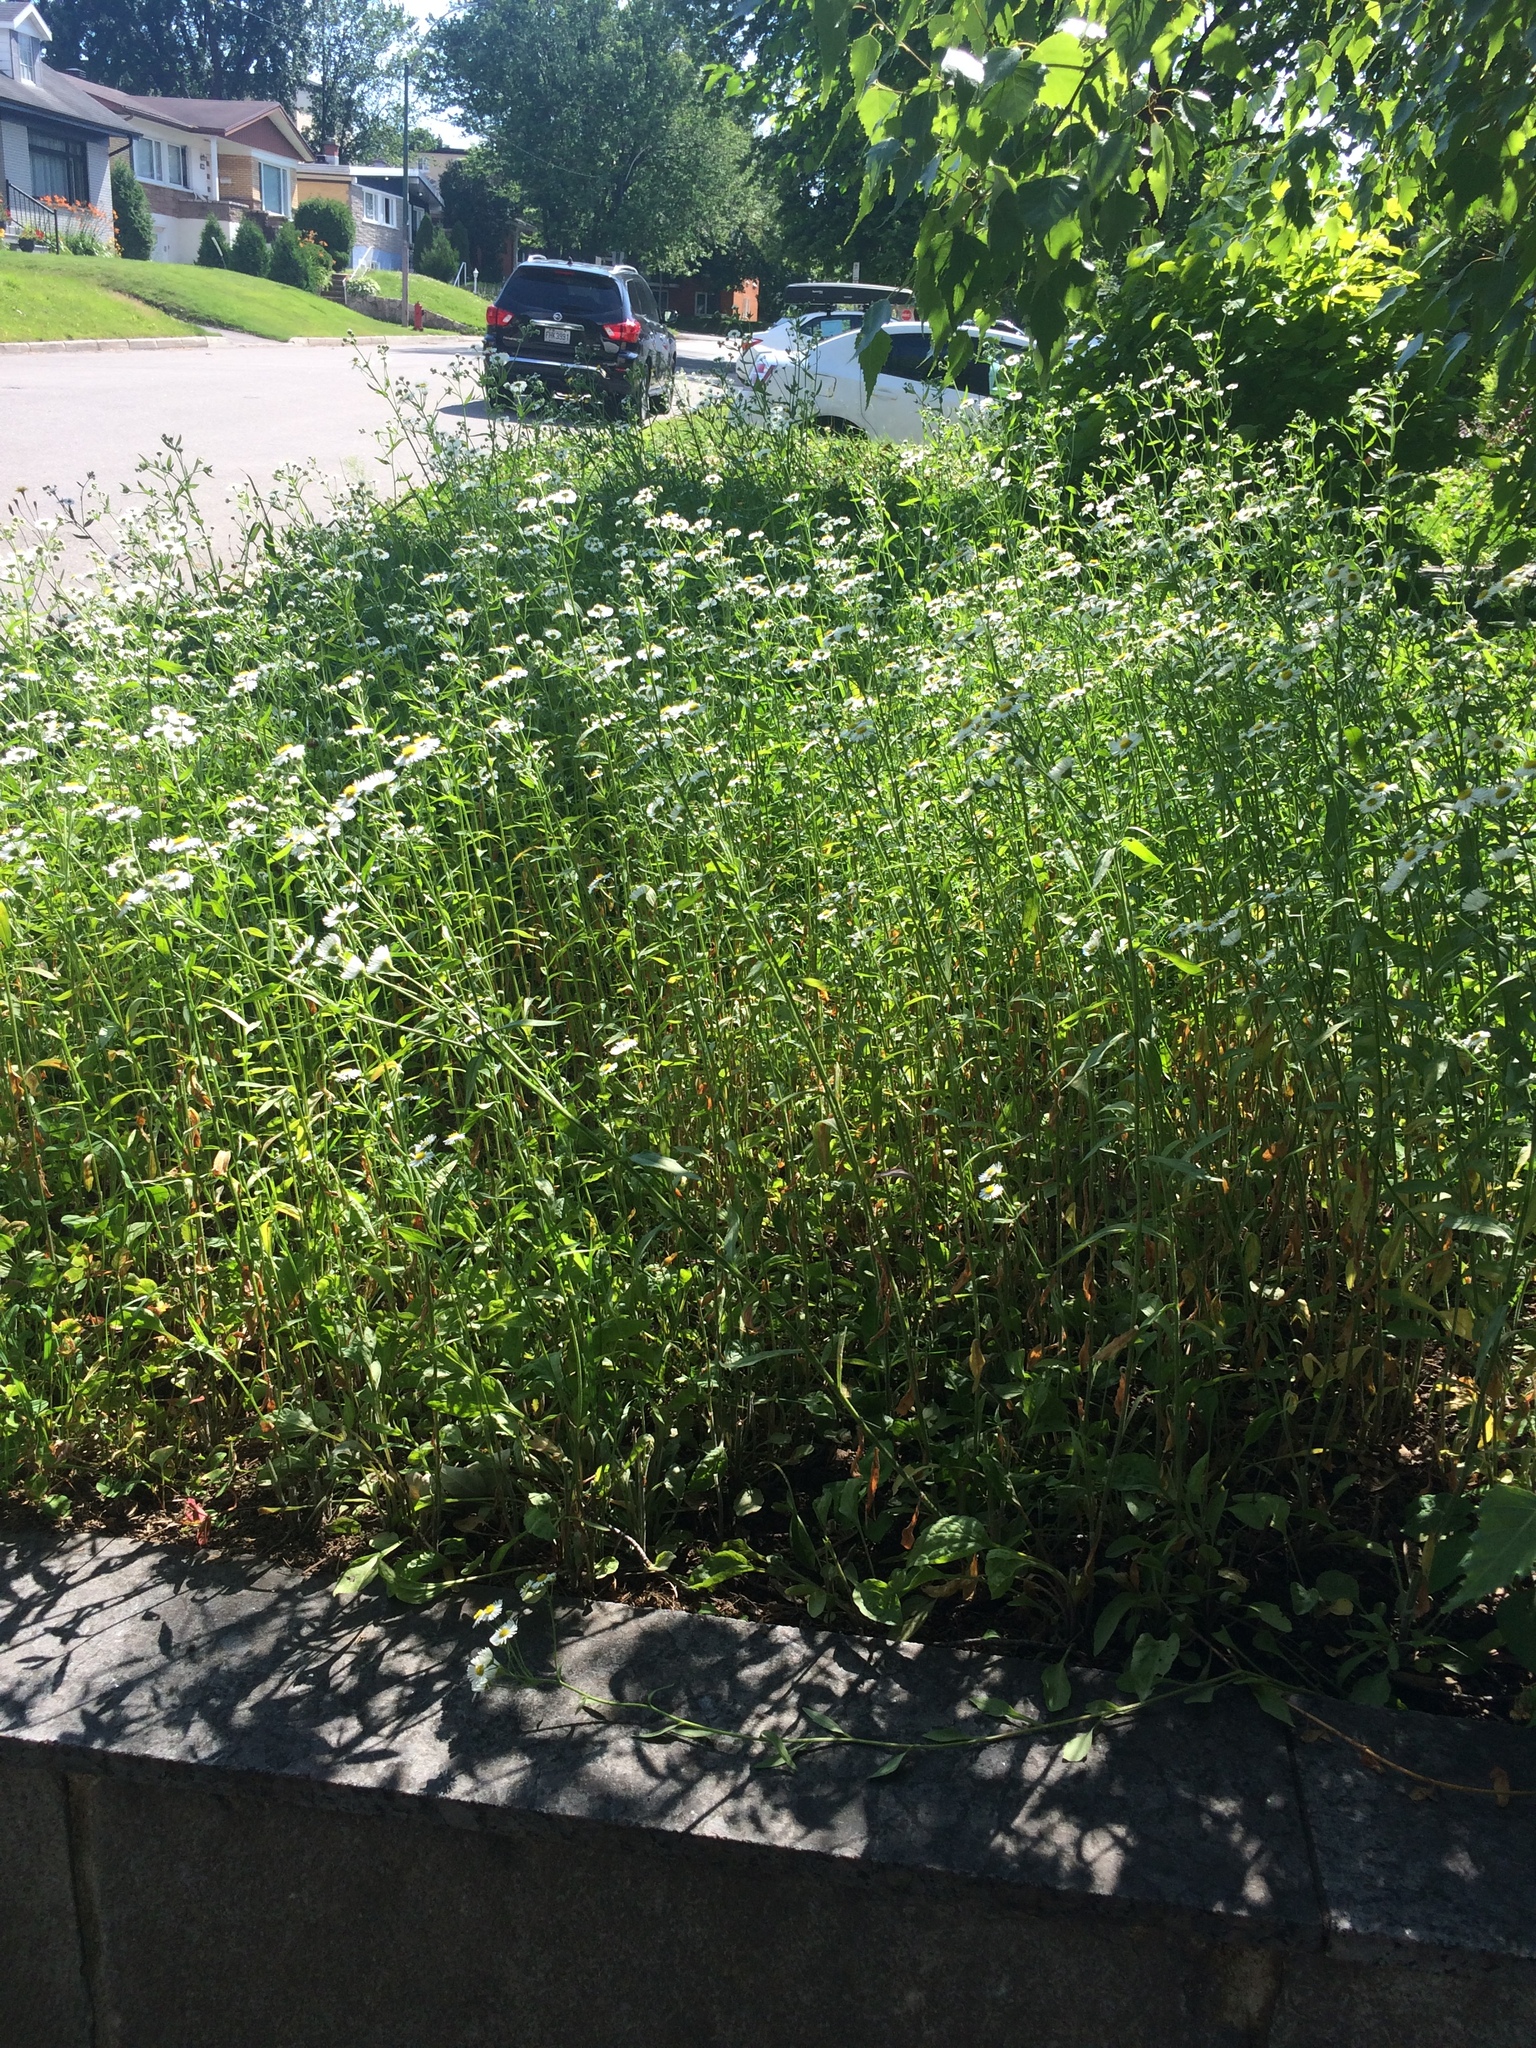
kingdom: Plantae
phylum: Tracheophyta
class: Magnoliopsida
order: Asterales
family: Asteraceae
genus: Erigeron
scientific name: Erigeron strigosus
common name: Common eastern fleabane
